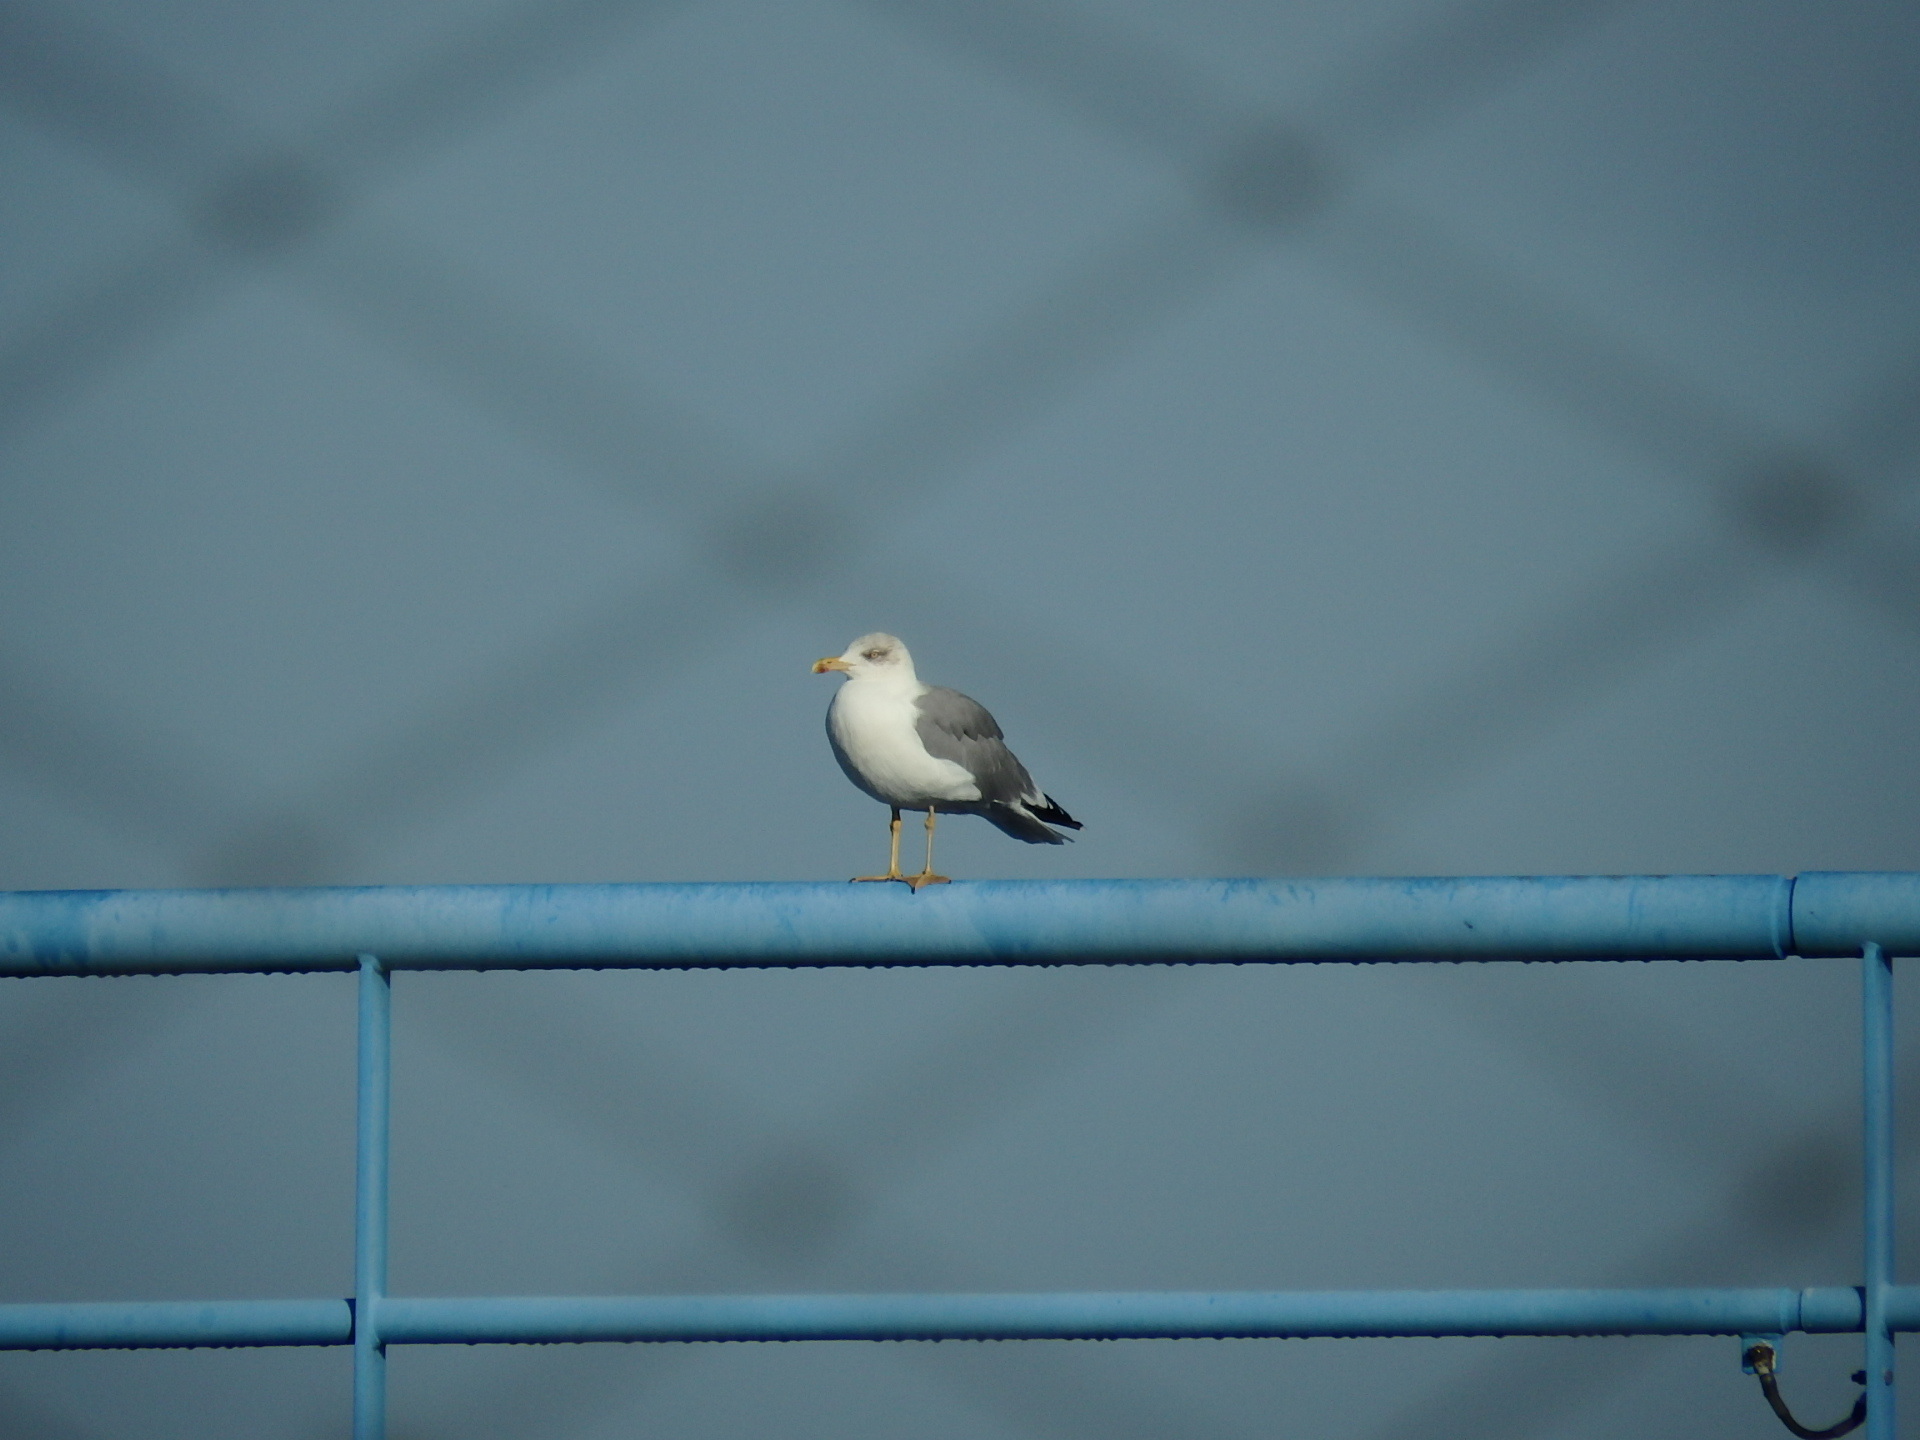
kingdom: Animalia
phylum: Chordata
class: Aves
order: Charadriiformes
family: Laridae
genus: Larus
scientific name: Larus michahellis
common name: Yellow-legged gull
